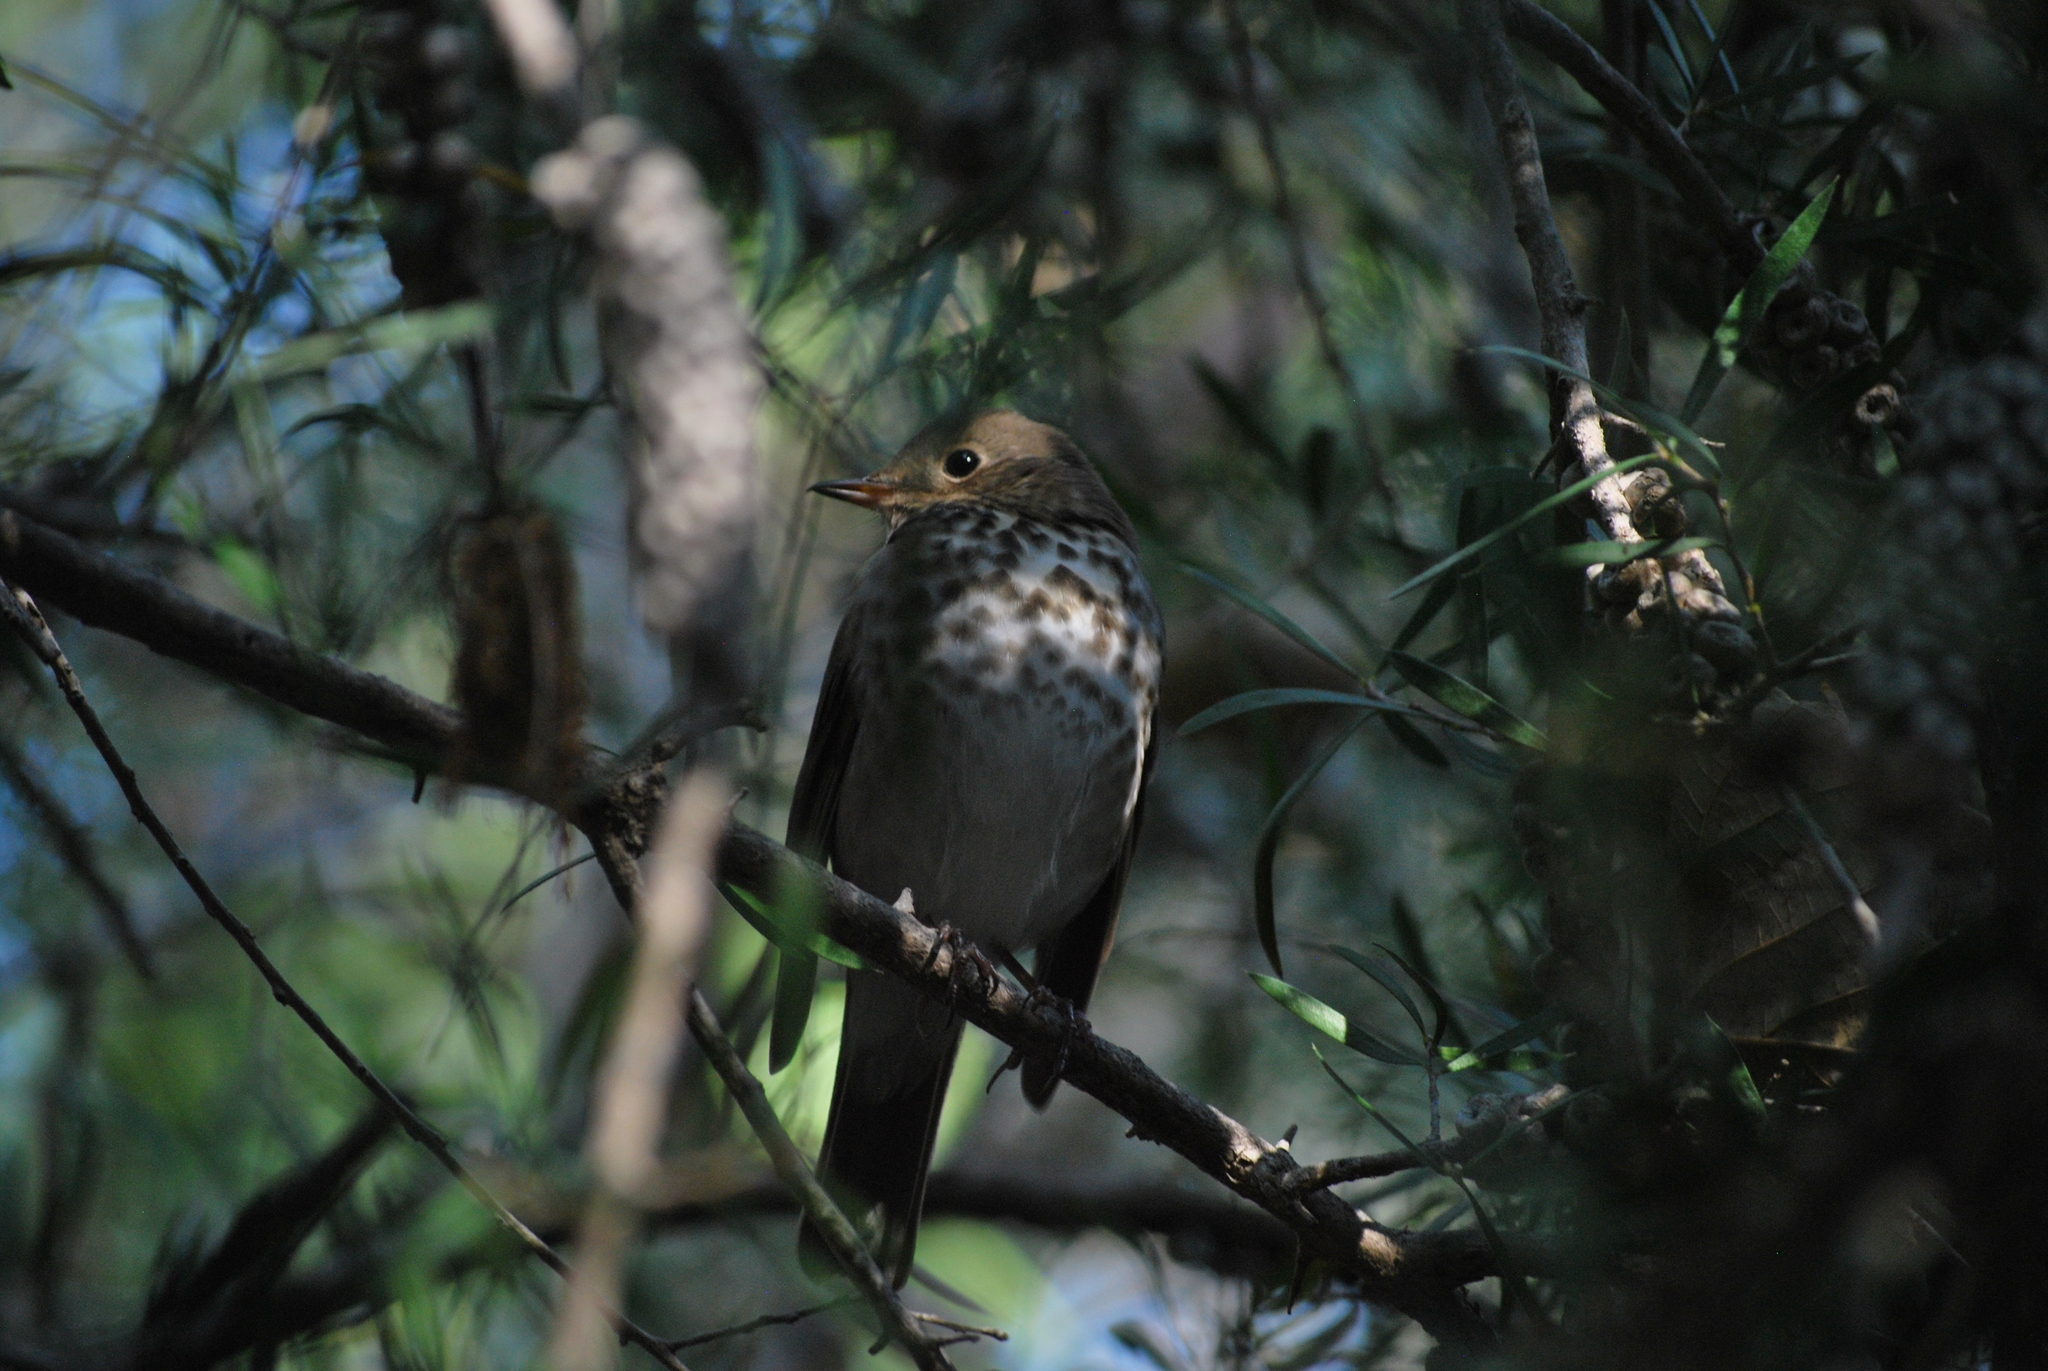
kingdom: Animalia
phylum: Chordata
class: Aves
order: Passeriformes
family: Turdidae
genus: Catharus
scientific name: Catharus guttatus
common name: Hermit thrush
